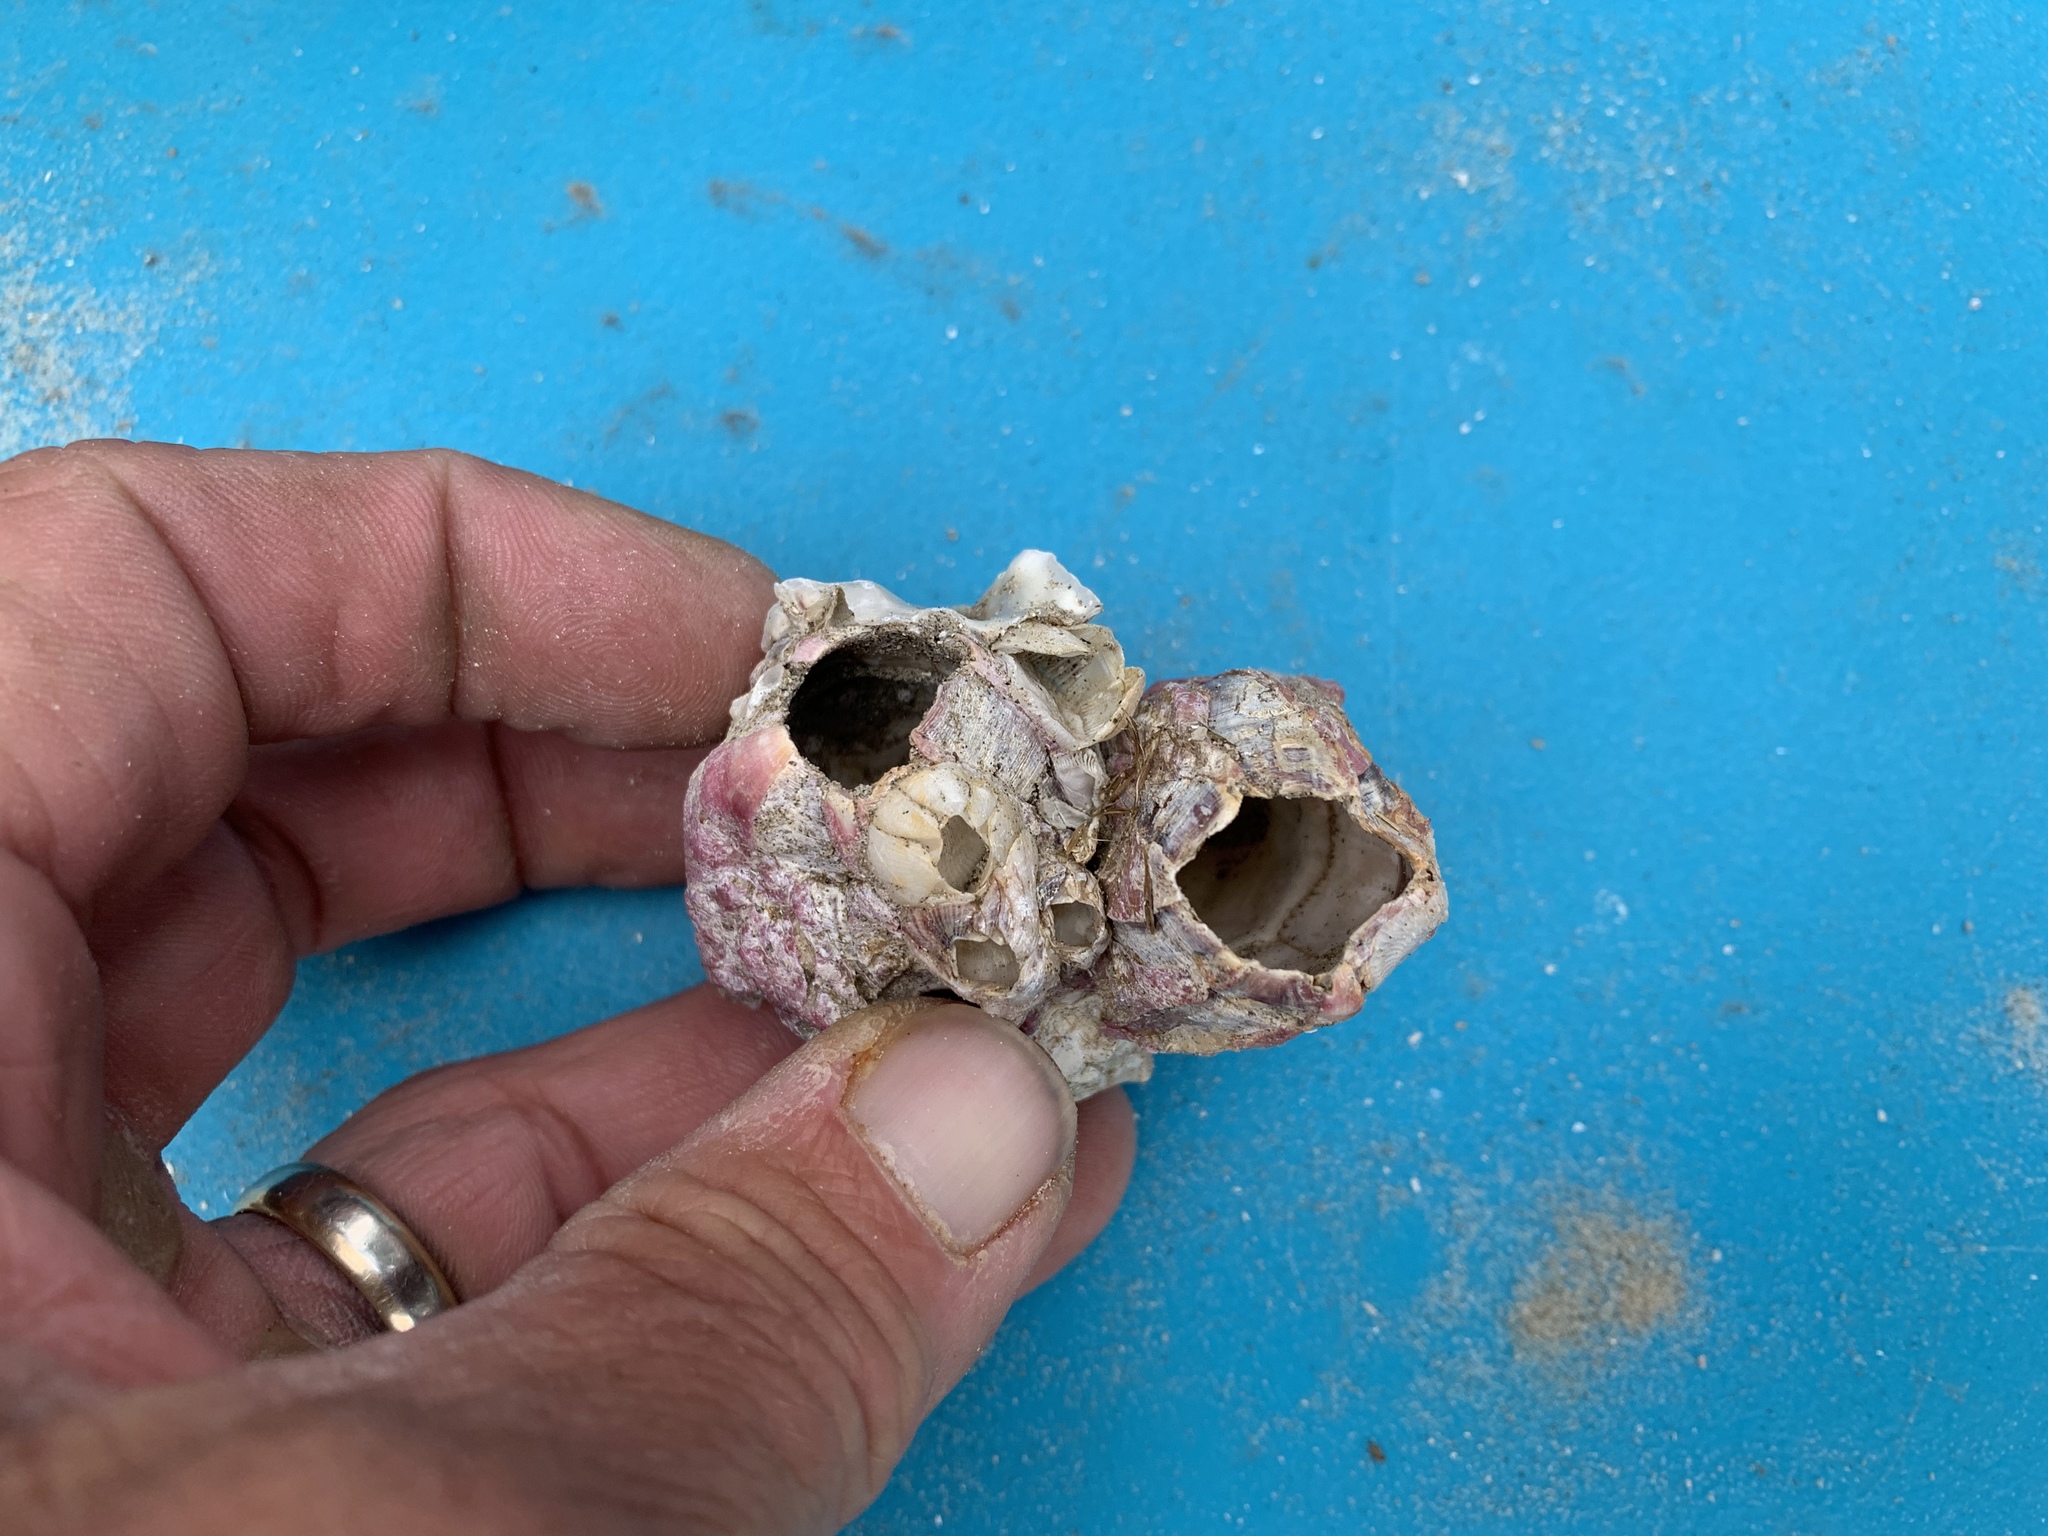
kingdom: Animalia
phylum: Arthropoda
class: Maxillopoda
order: Sessilia
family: Balanidae
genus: Megabalanus
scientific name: Megabalanus tintinnabulum
